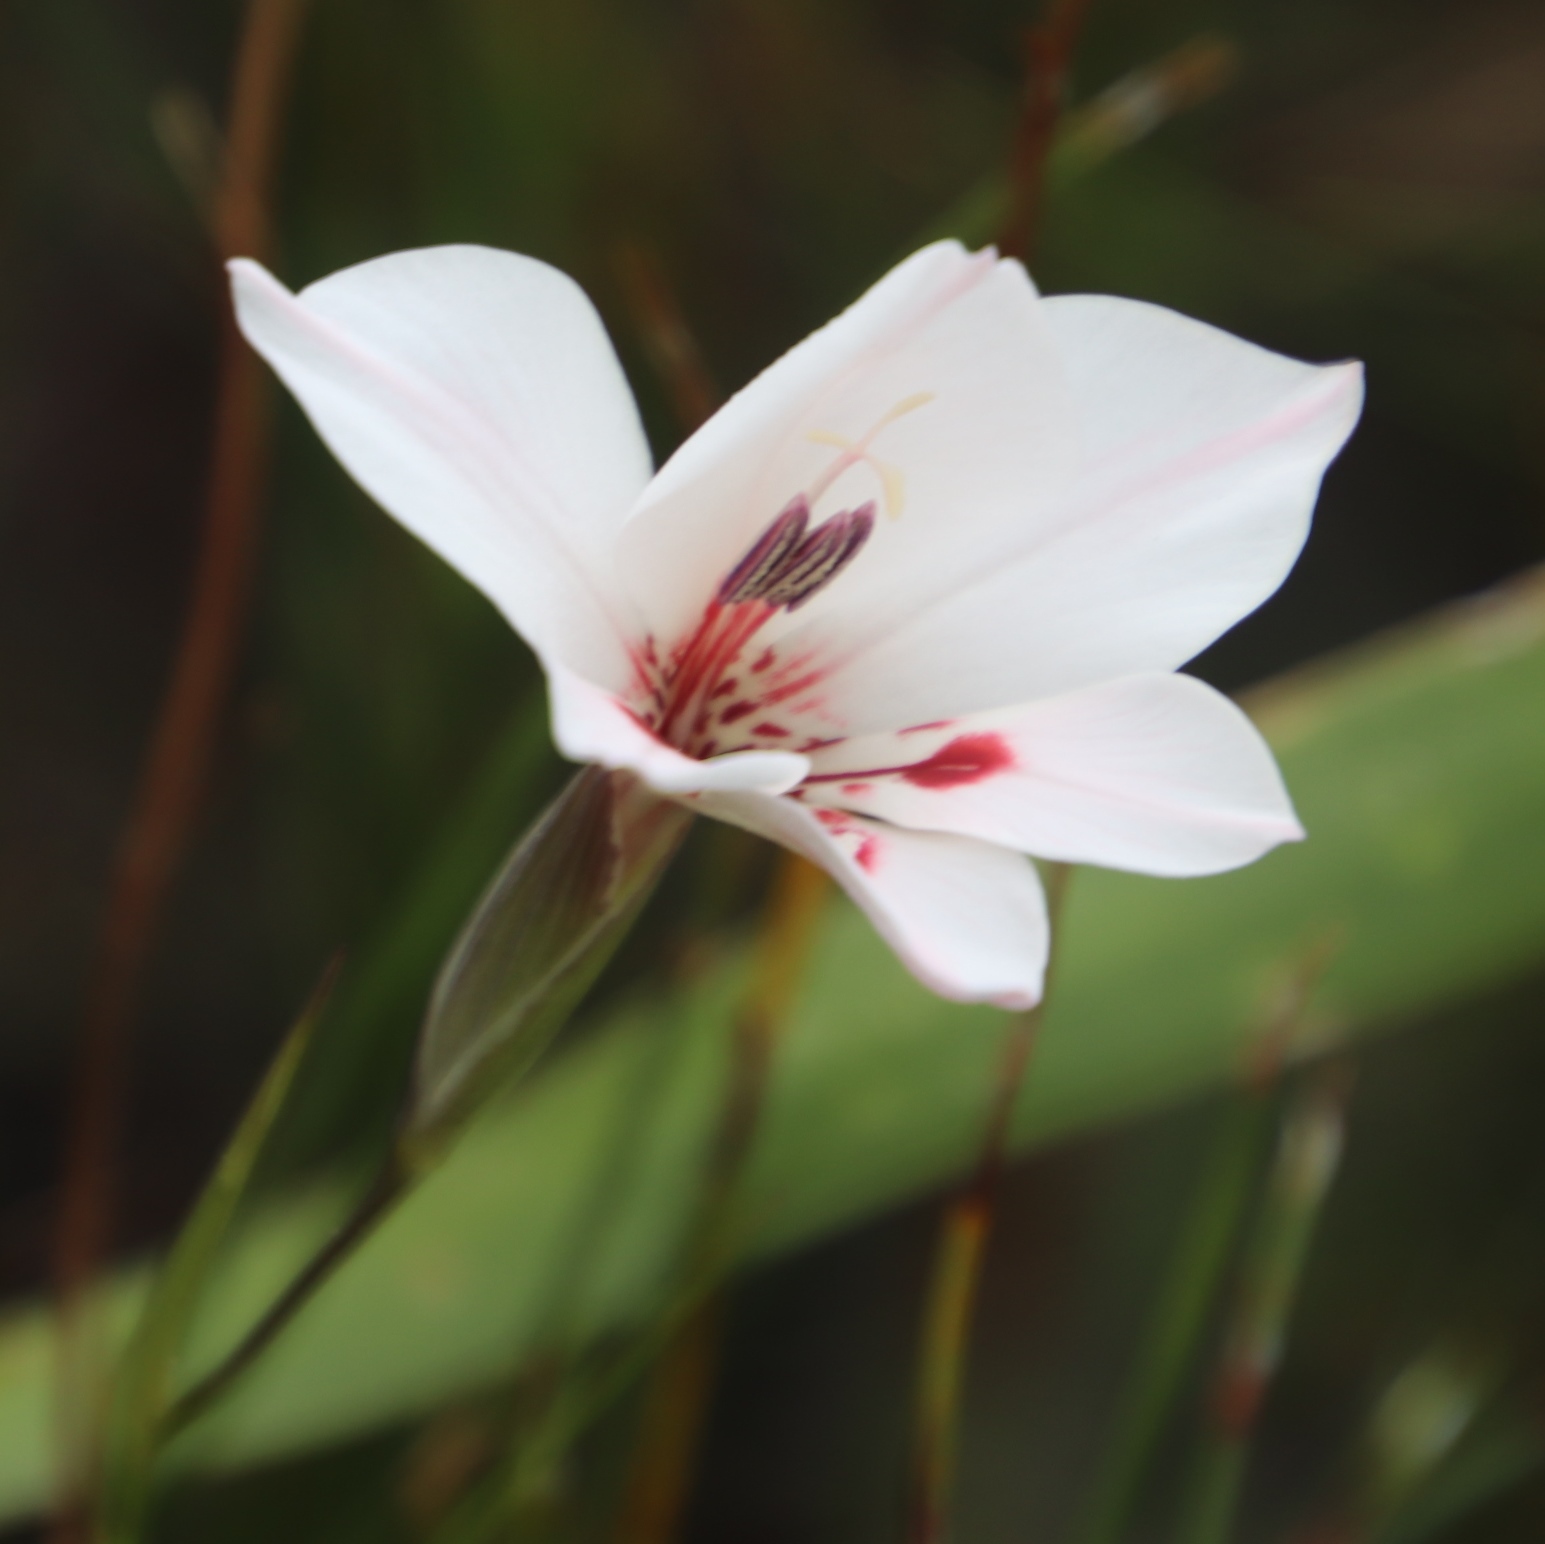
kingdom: Plantae
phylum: Tracheophyta
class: Liliopsida
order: Asparagales
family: Iridaceae
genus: Gladiolus
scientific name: Gladiolus debilis
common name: Painted-lady
